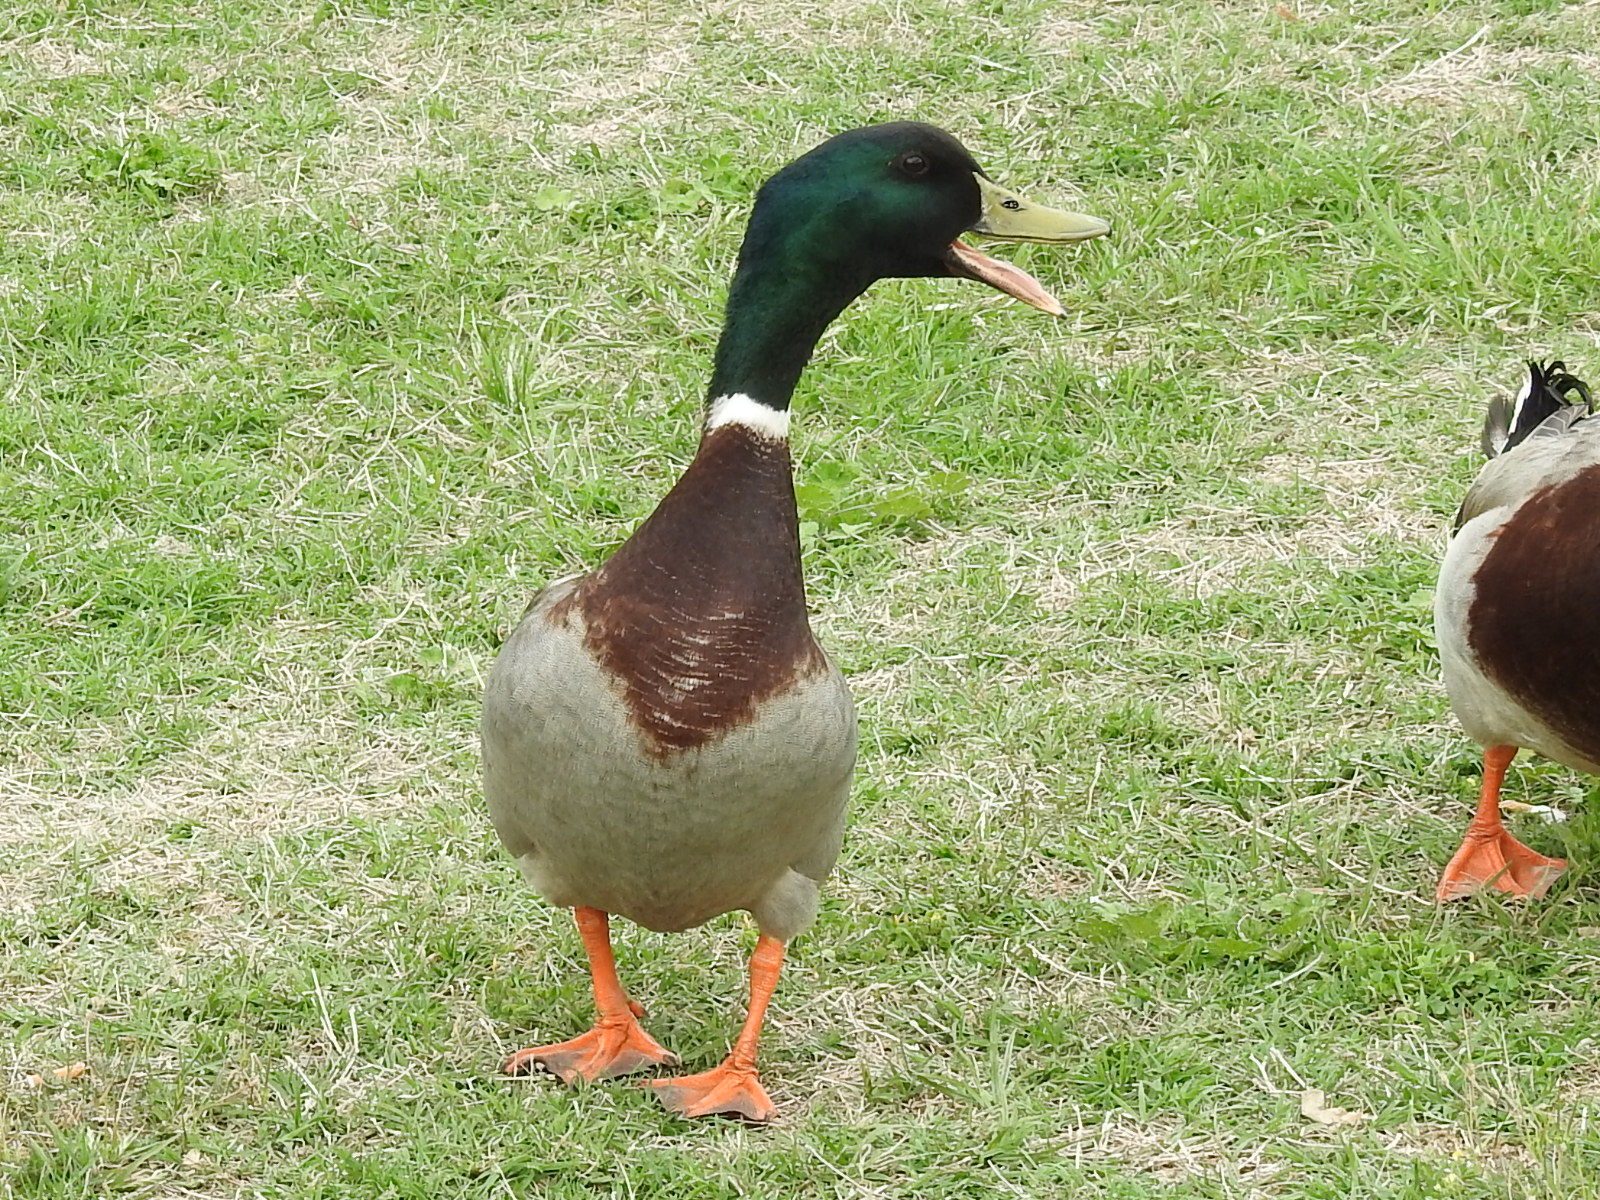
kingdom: Animalia
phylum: Chordata
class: Aves
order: Anseriformes
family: Anatidae
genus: Anas
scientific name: Anas platyrhynchos
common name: Mallard
